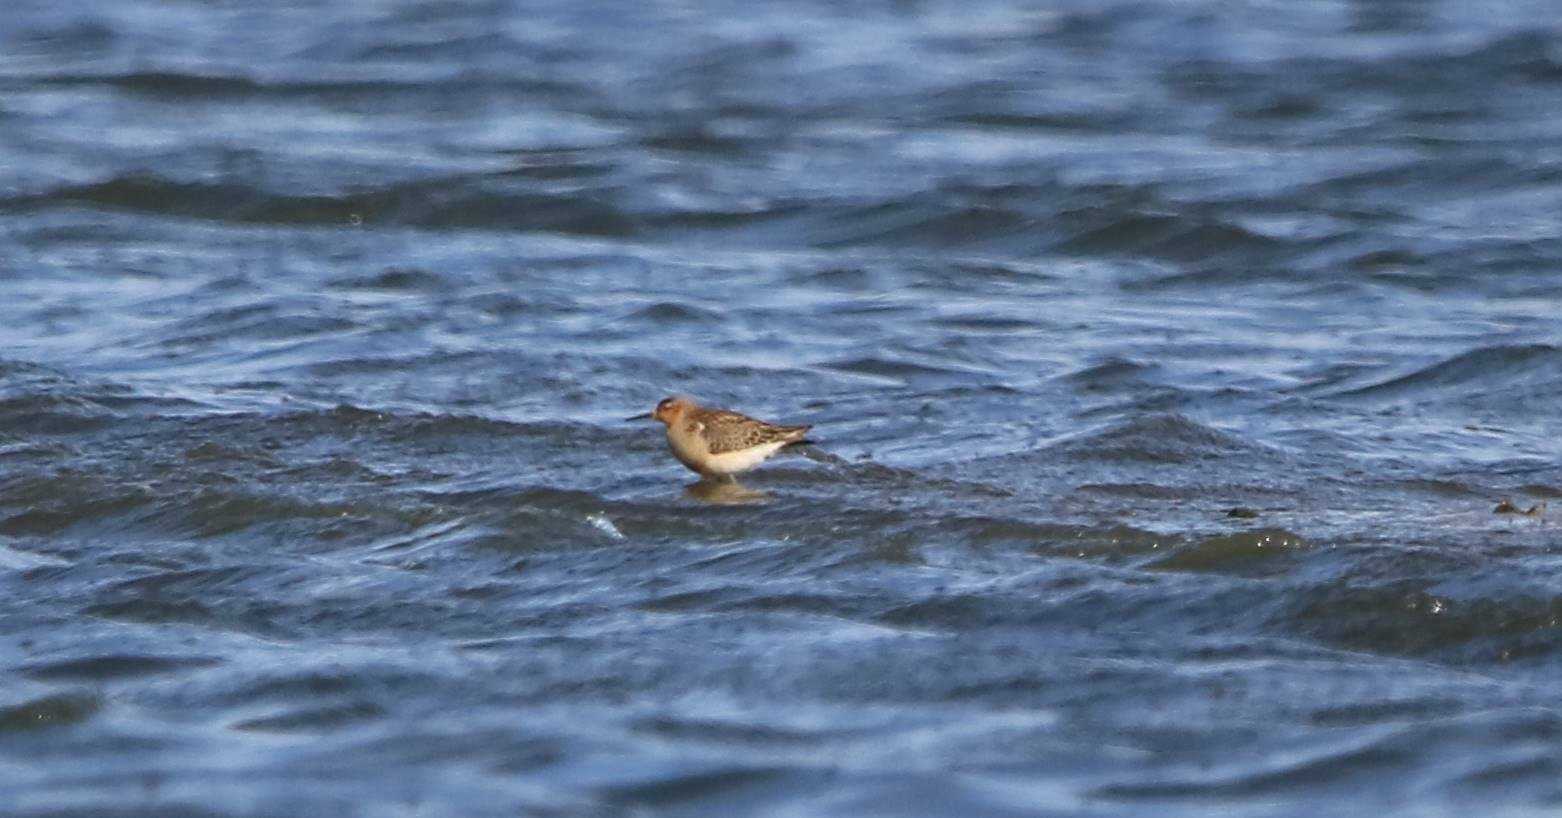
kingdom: Animalia
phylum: Chordata
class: Aves
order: Charadriiformes
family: Scolopacidae
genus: Calidris
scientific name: Calidris pugnax
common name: Ruff
